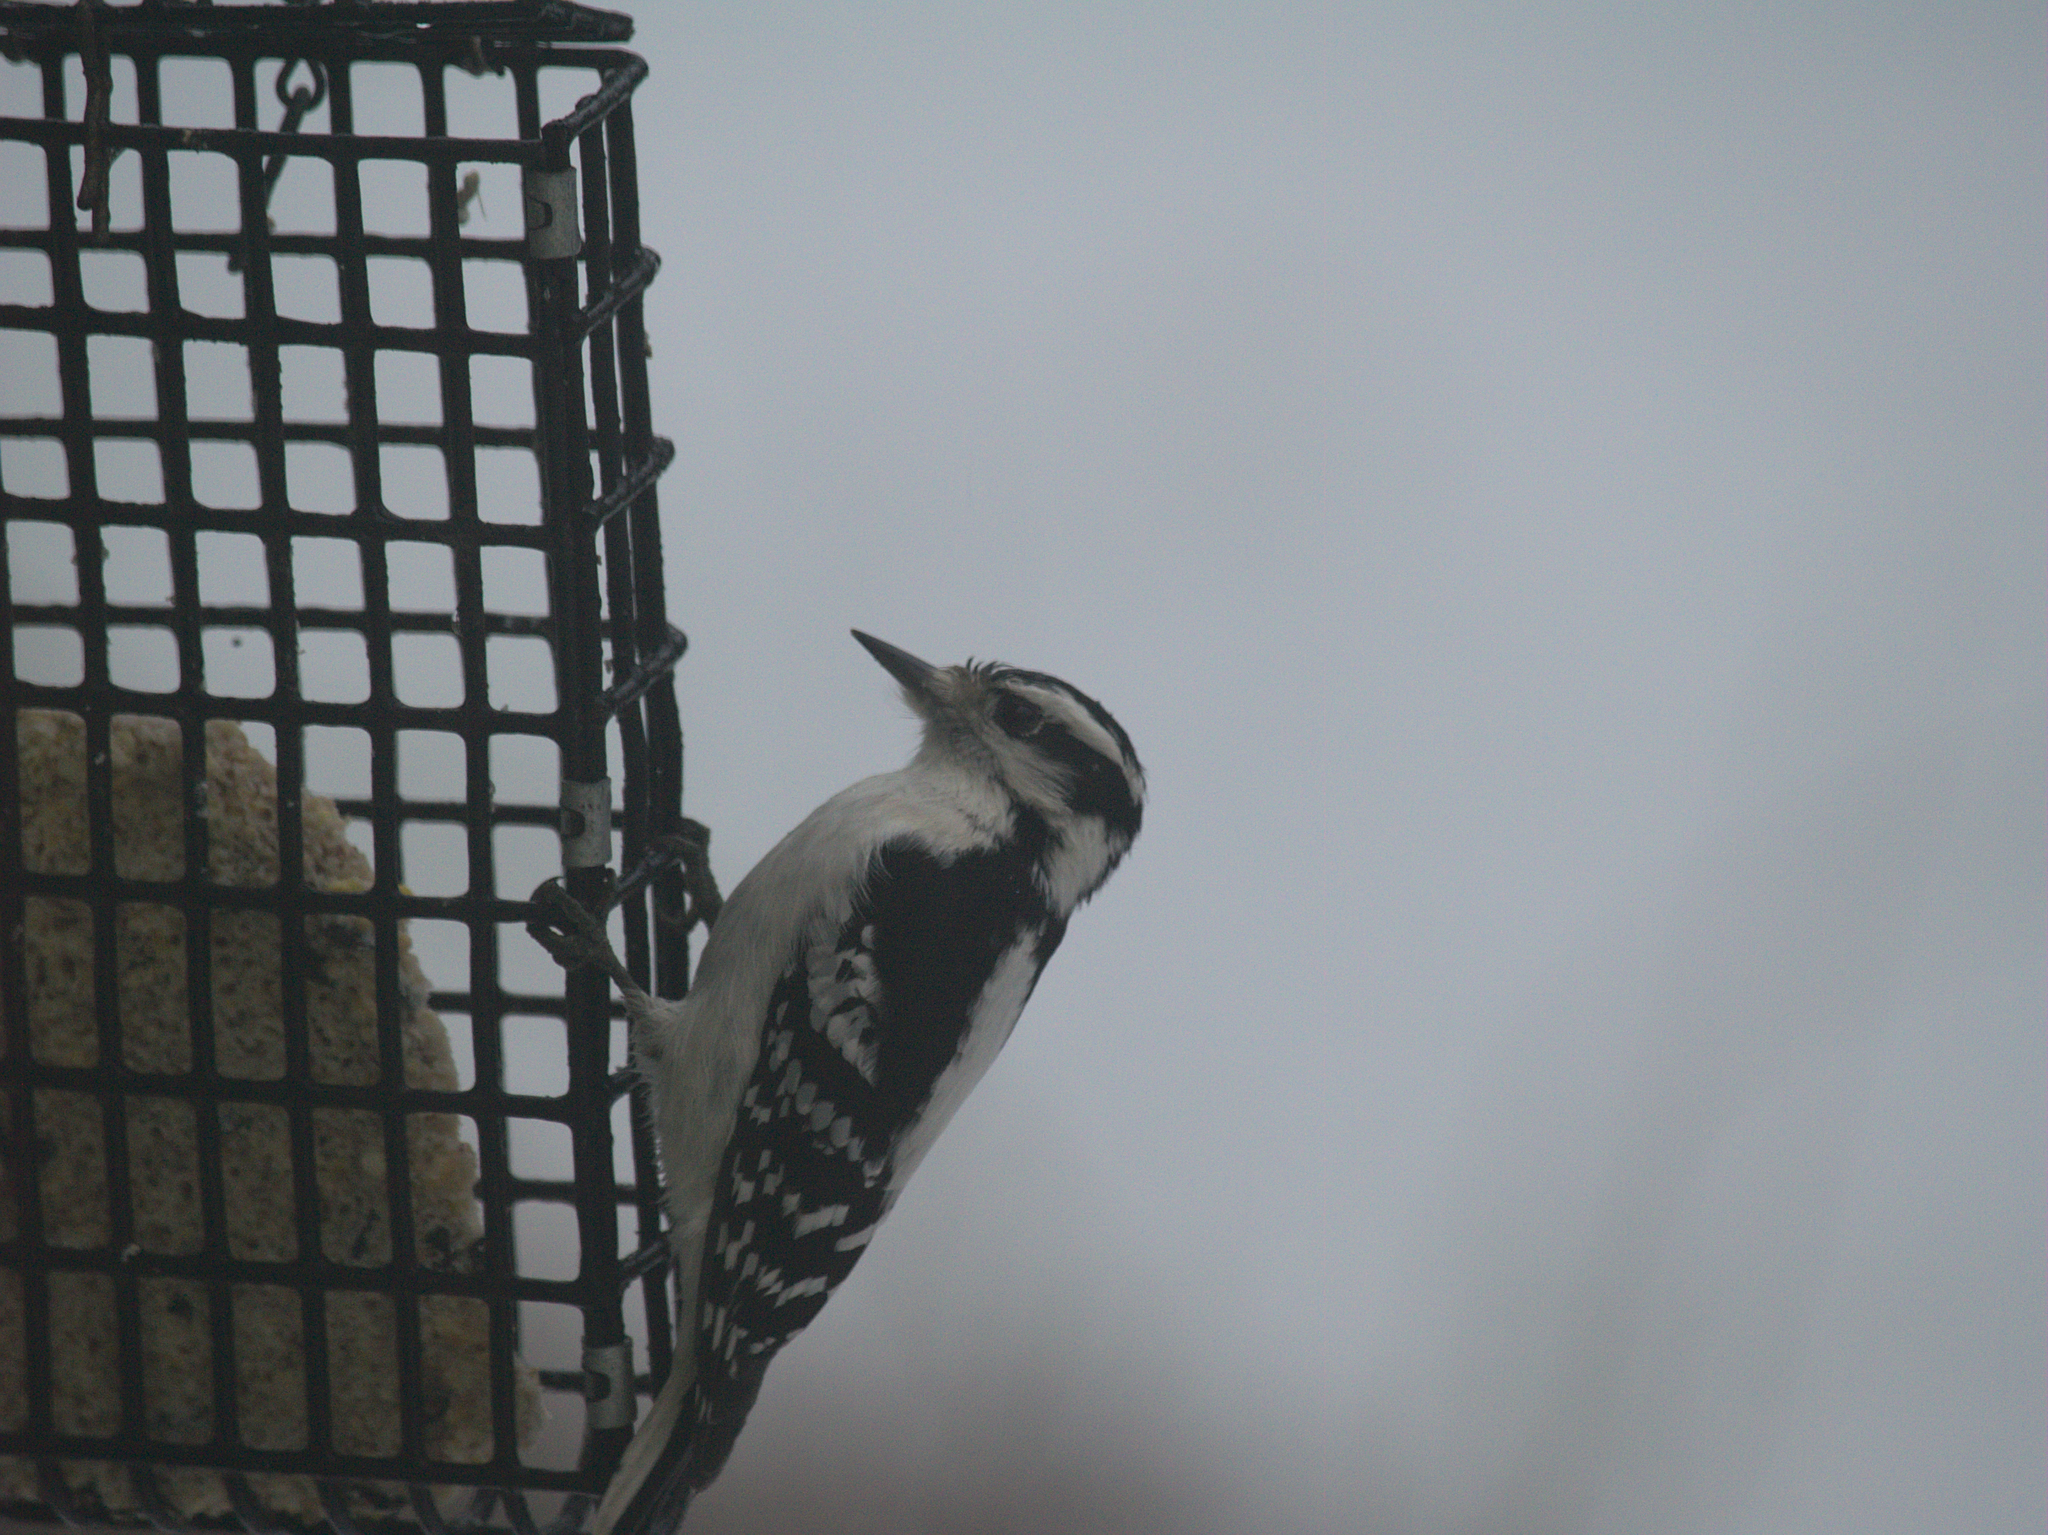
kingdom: Animalia
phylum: Chordata
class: Aves
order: Piciformes
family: Picidae
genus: Dryobates
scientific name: Dryobates pubescens
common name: Downy woodpecker
